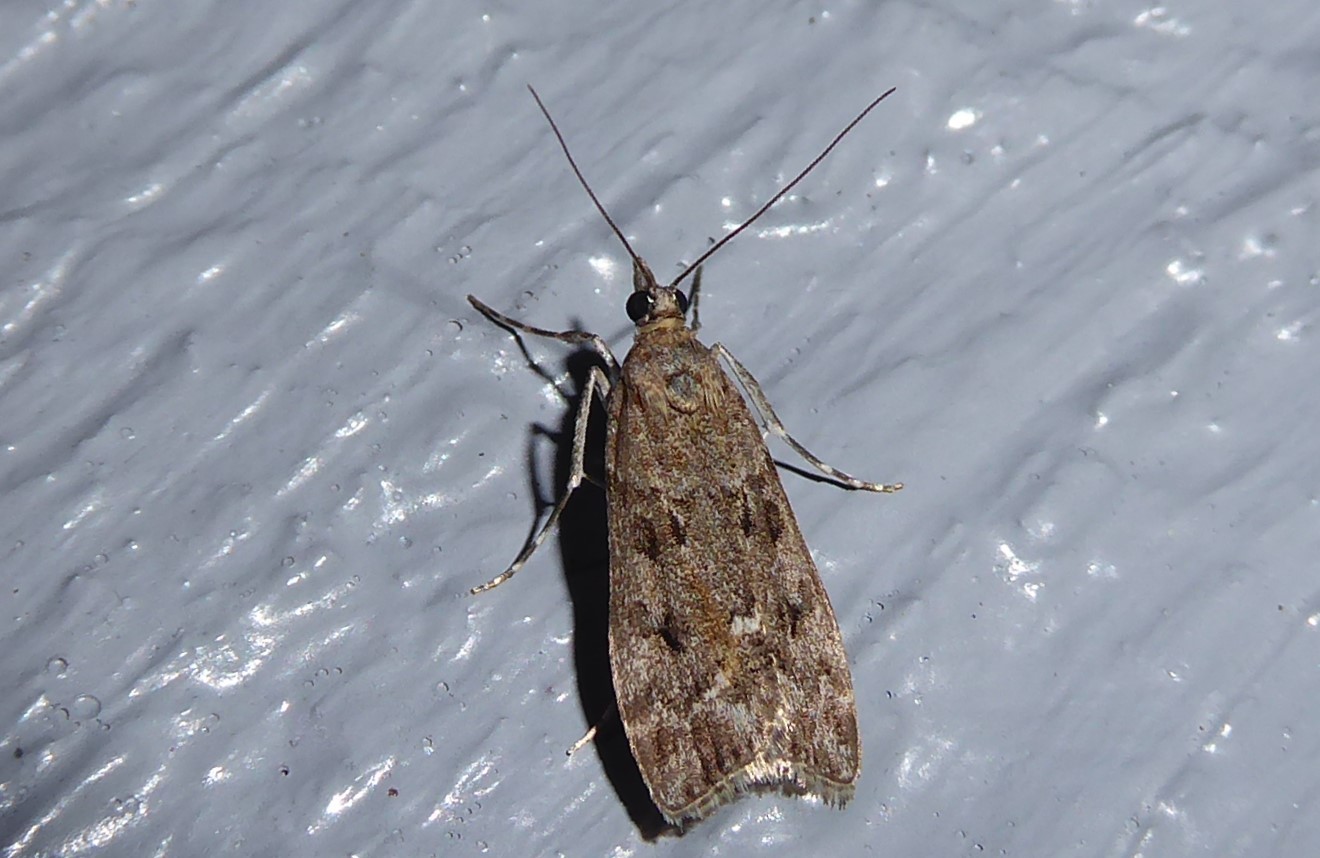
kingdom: Animalia
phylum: Arthropoda
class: Insecta
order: Lepidoptera
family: Crambidae
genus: Eudonia
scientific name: Eudonia submarginalis
